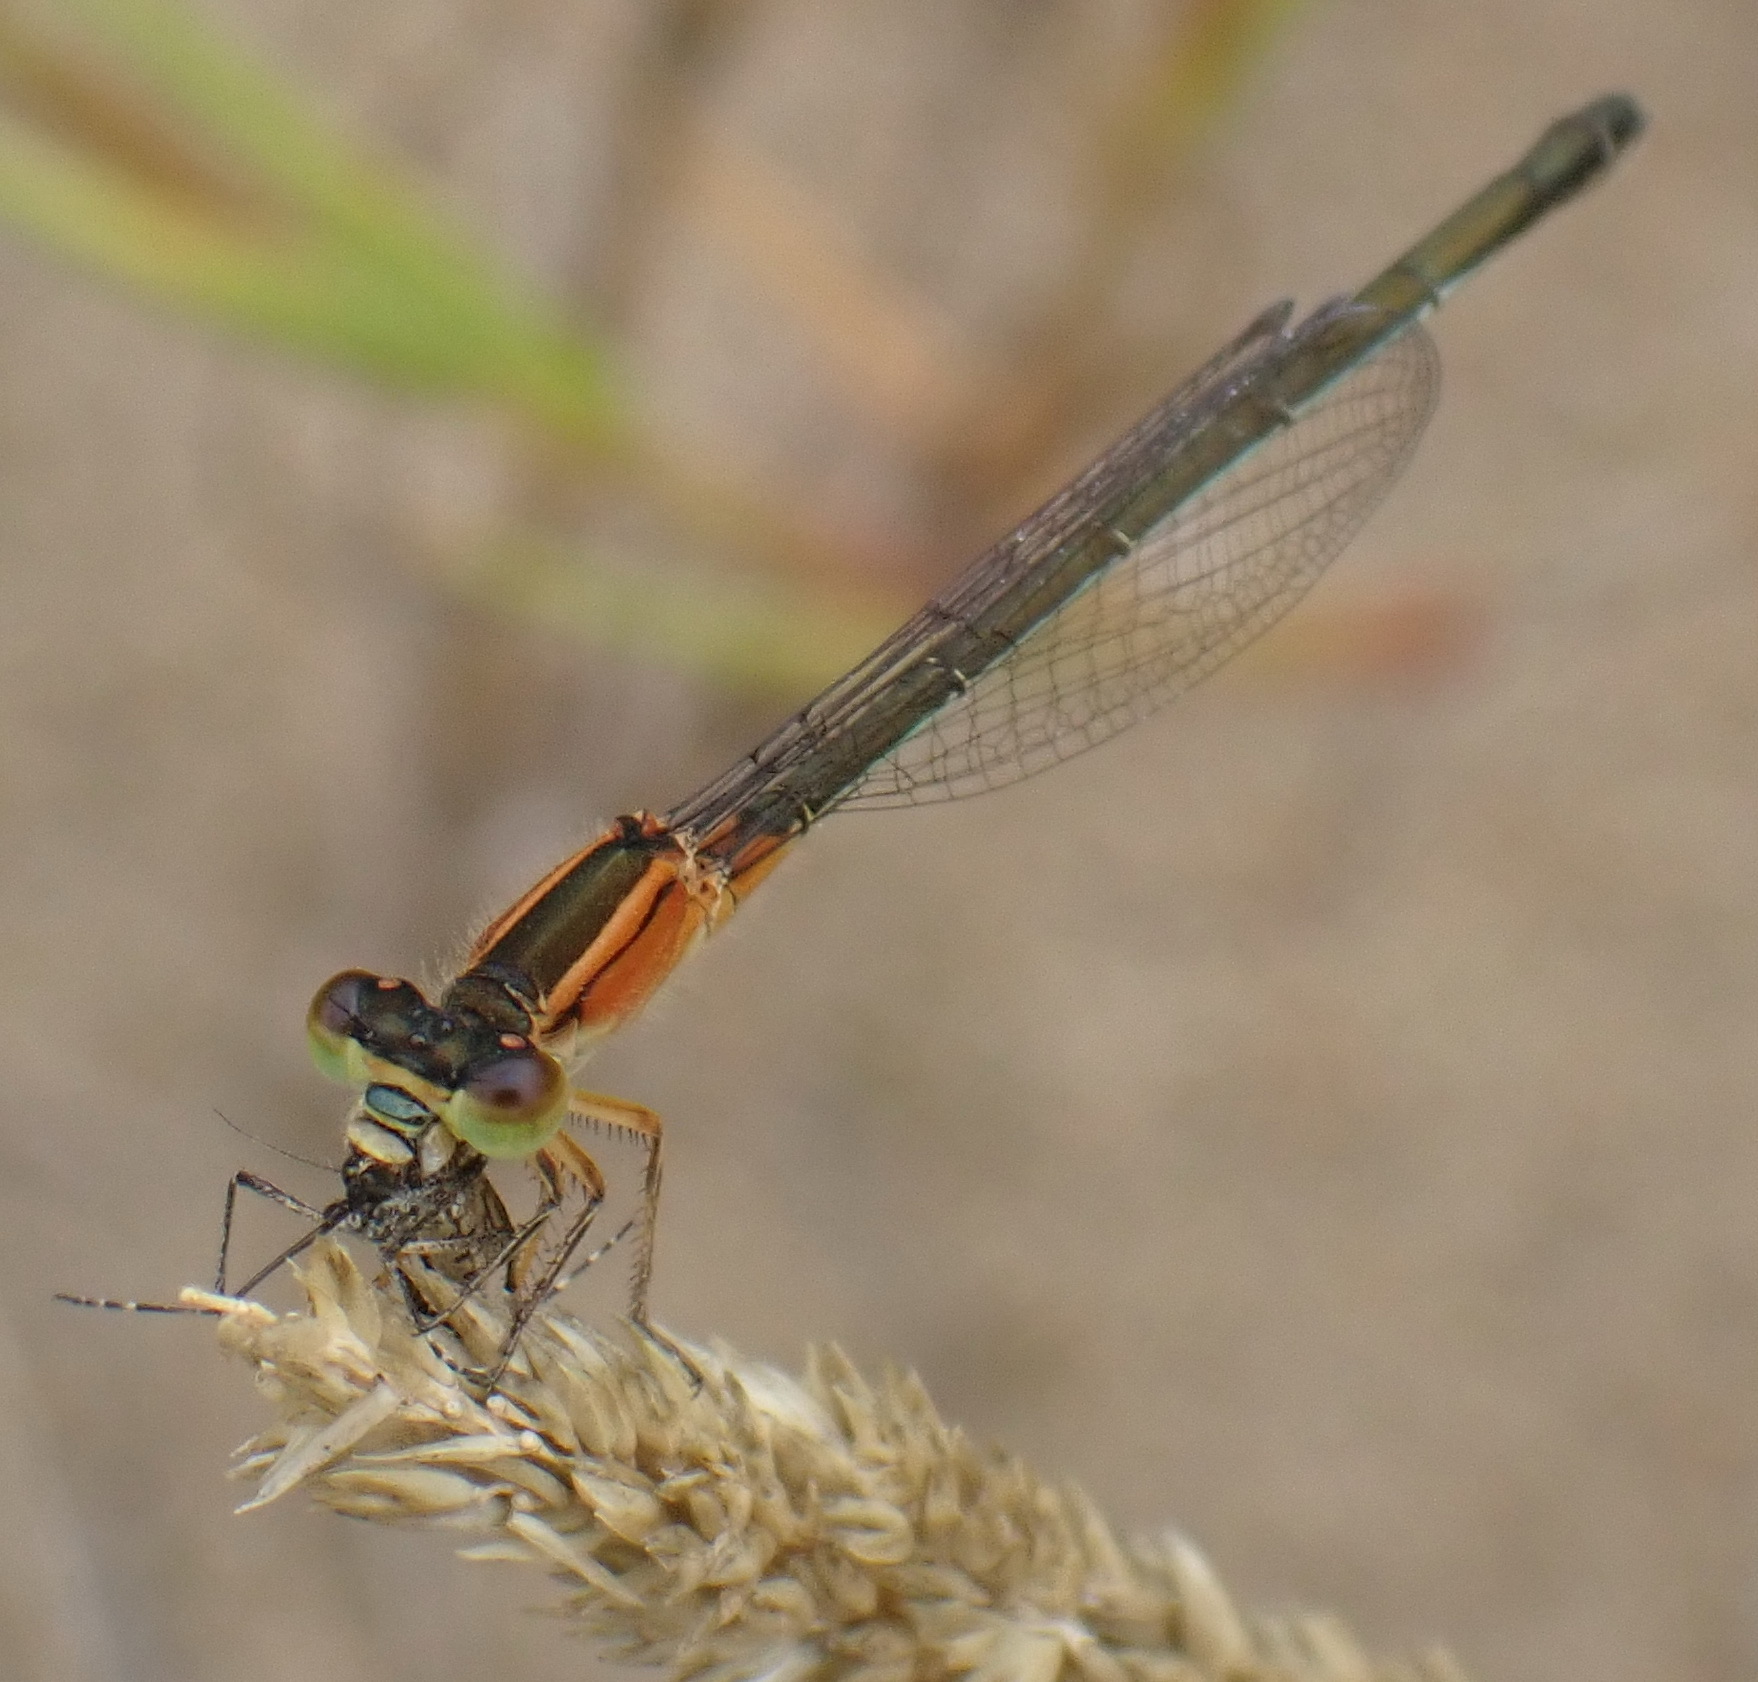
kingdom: Animalia
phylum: Arthropoda
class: Insecta
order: Odonata
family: Coenagrionidae
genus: Ischnura
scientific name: Ischnura senegalensis
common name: Tropical bluetail
